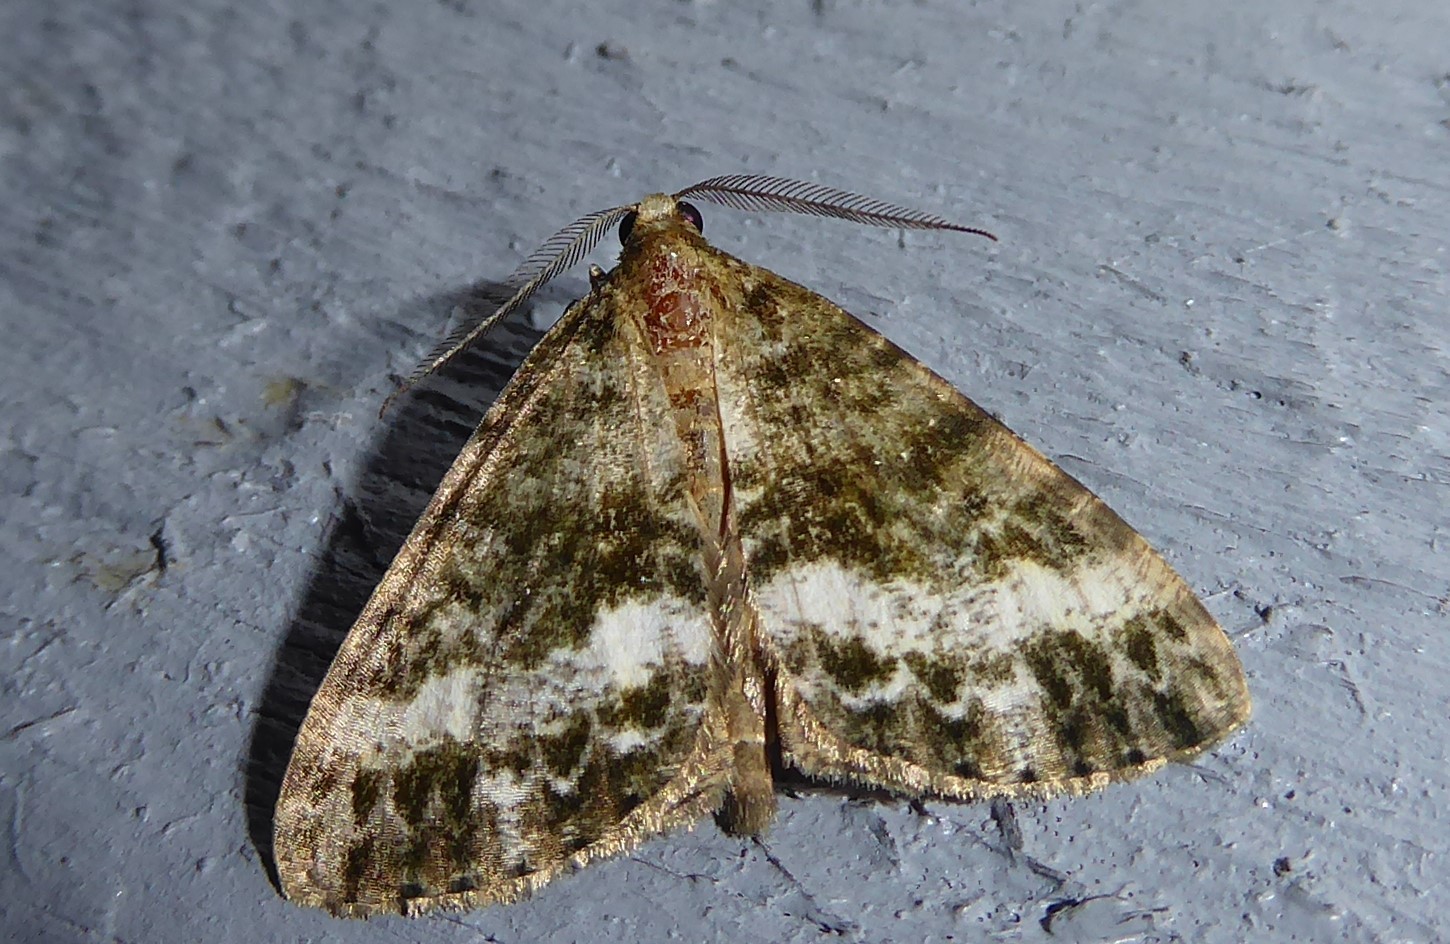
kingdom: Animalia
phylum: Arthropoda
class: Insecta
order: Lepidoptera
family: Geometridae
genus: Pseudocoremia
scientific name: Pseudocoremia lactiflua
